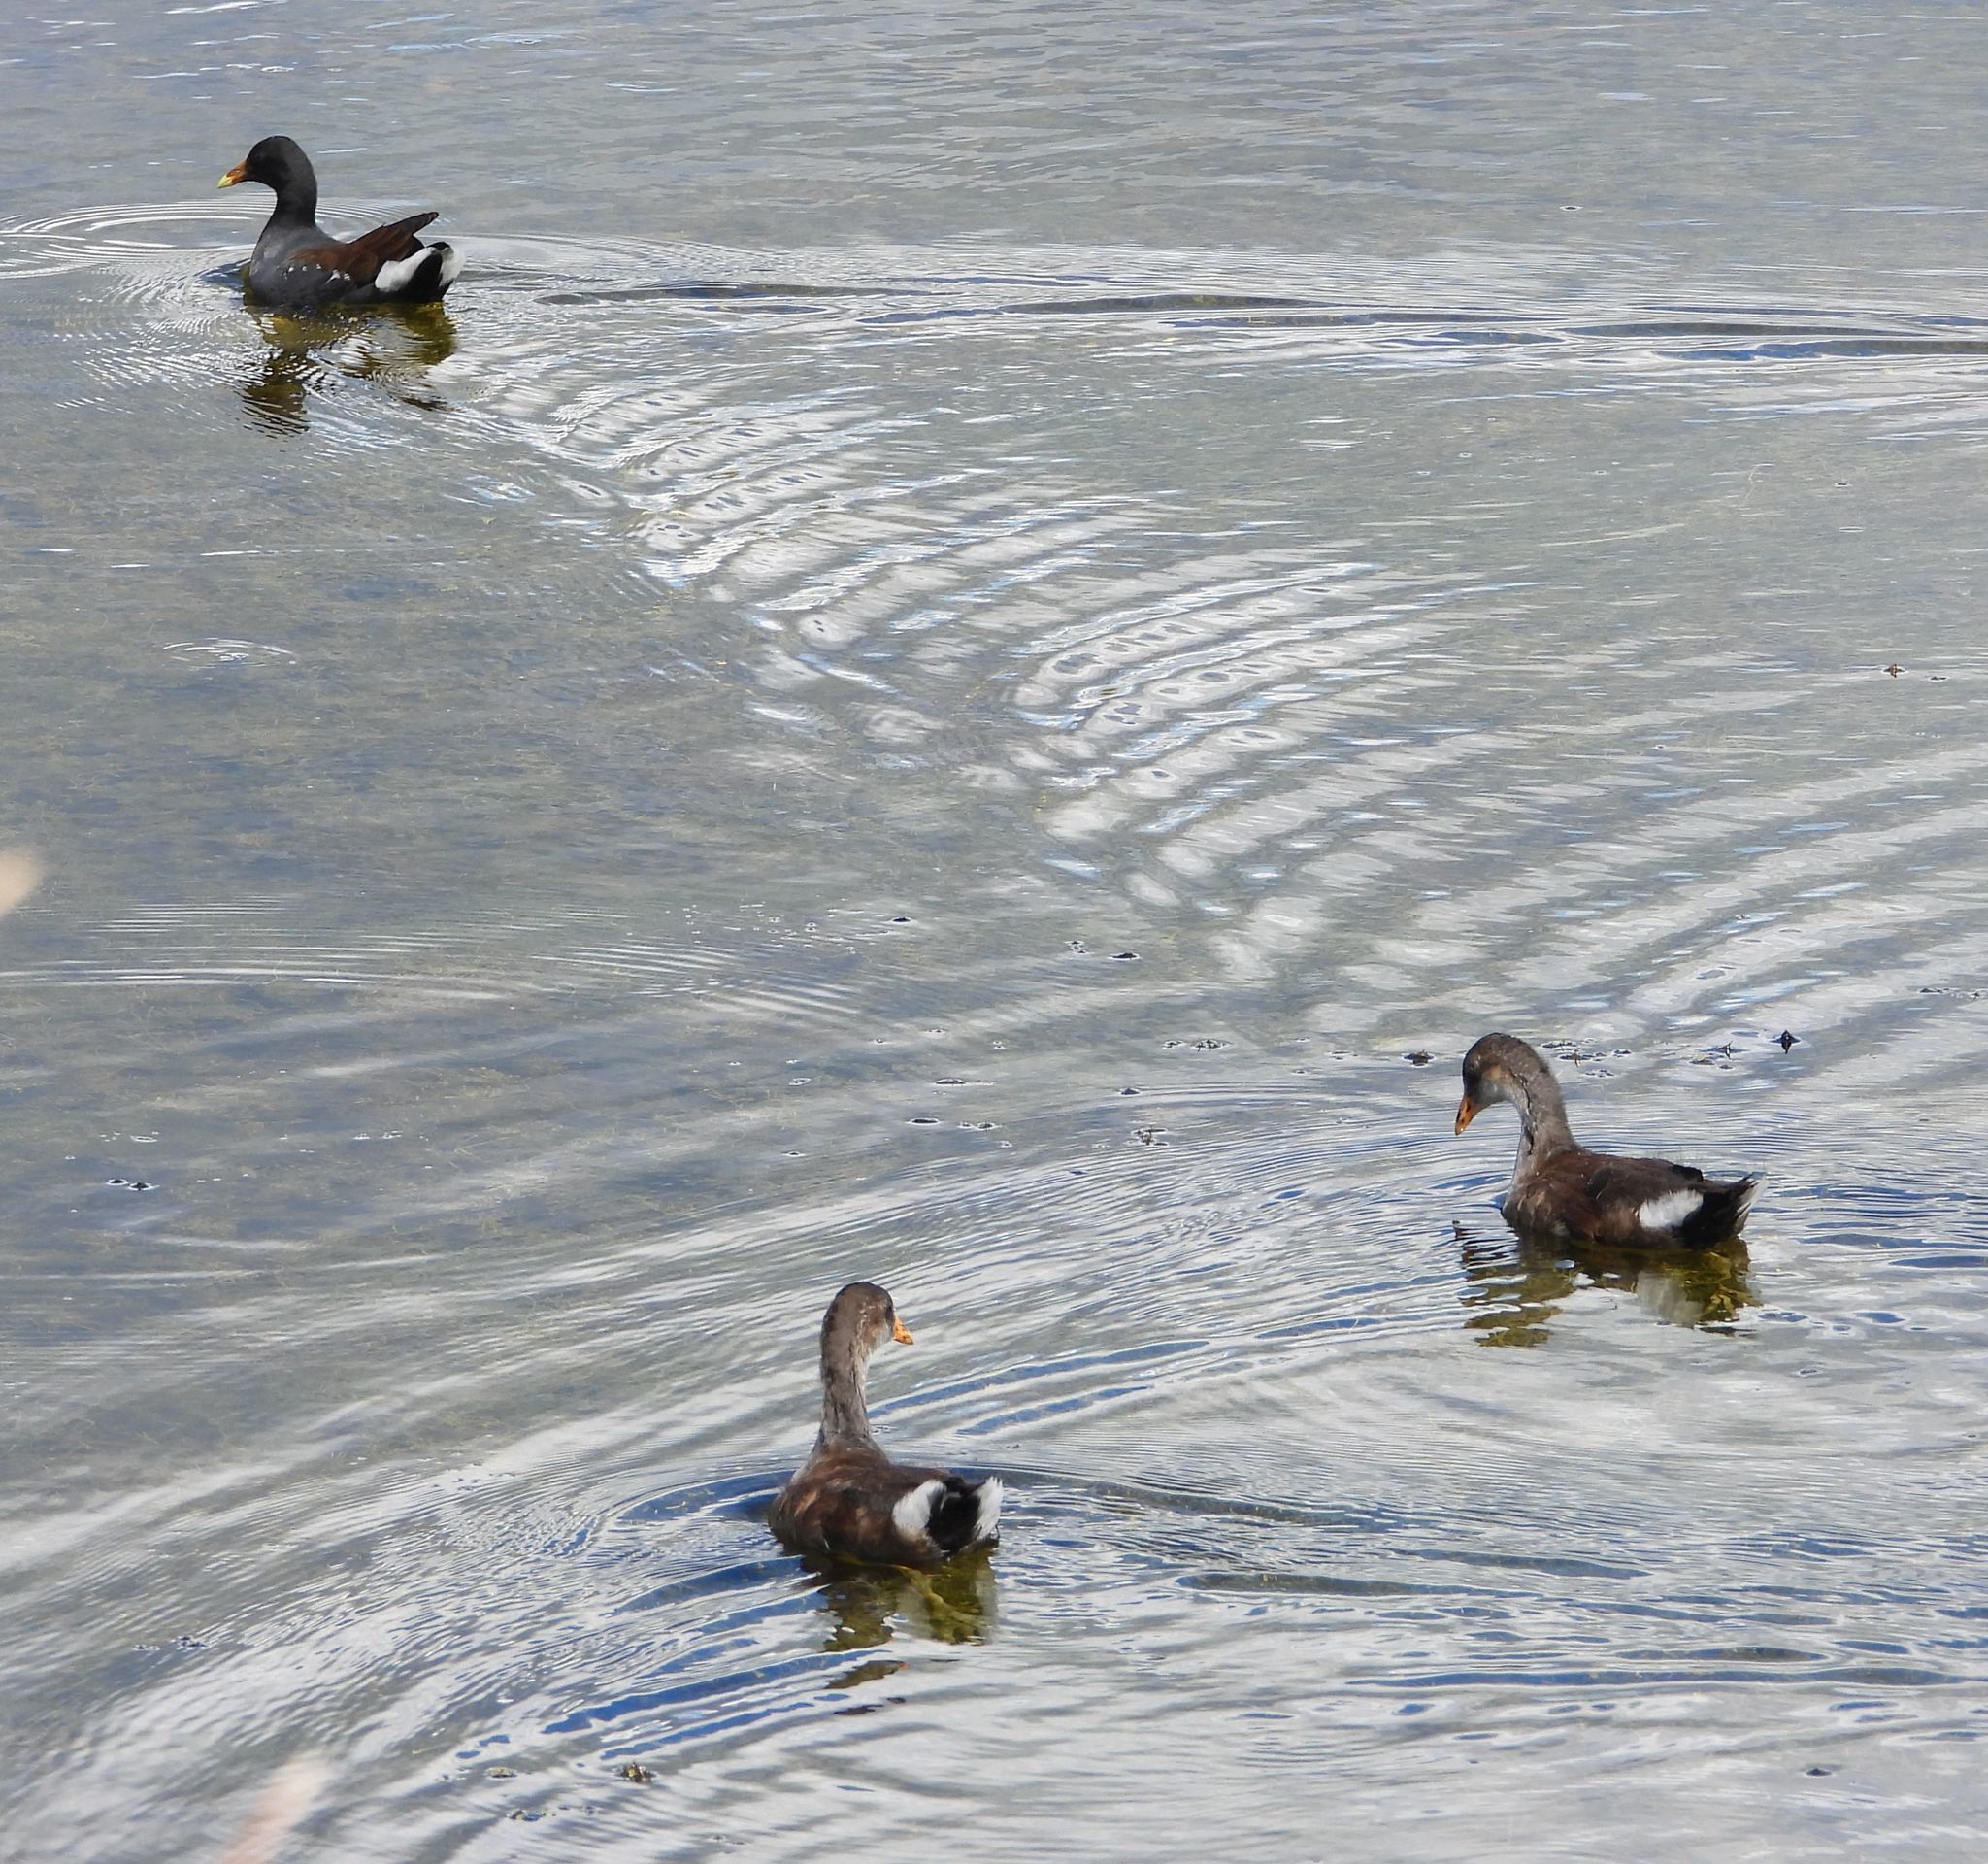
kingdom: Animalia
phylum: Chordata
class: Aves
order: Gruiformes
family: Rallidae
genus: Gallinula
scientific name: Gallinula chloropus
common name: Common moorhen
